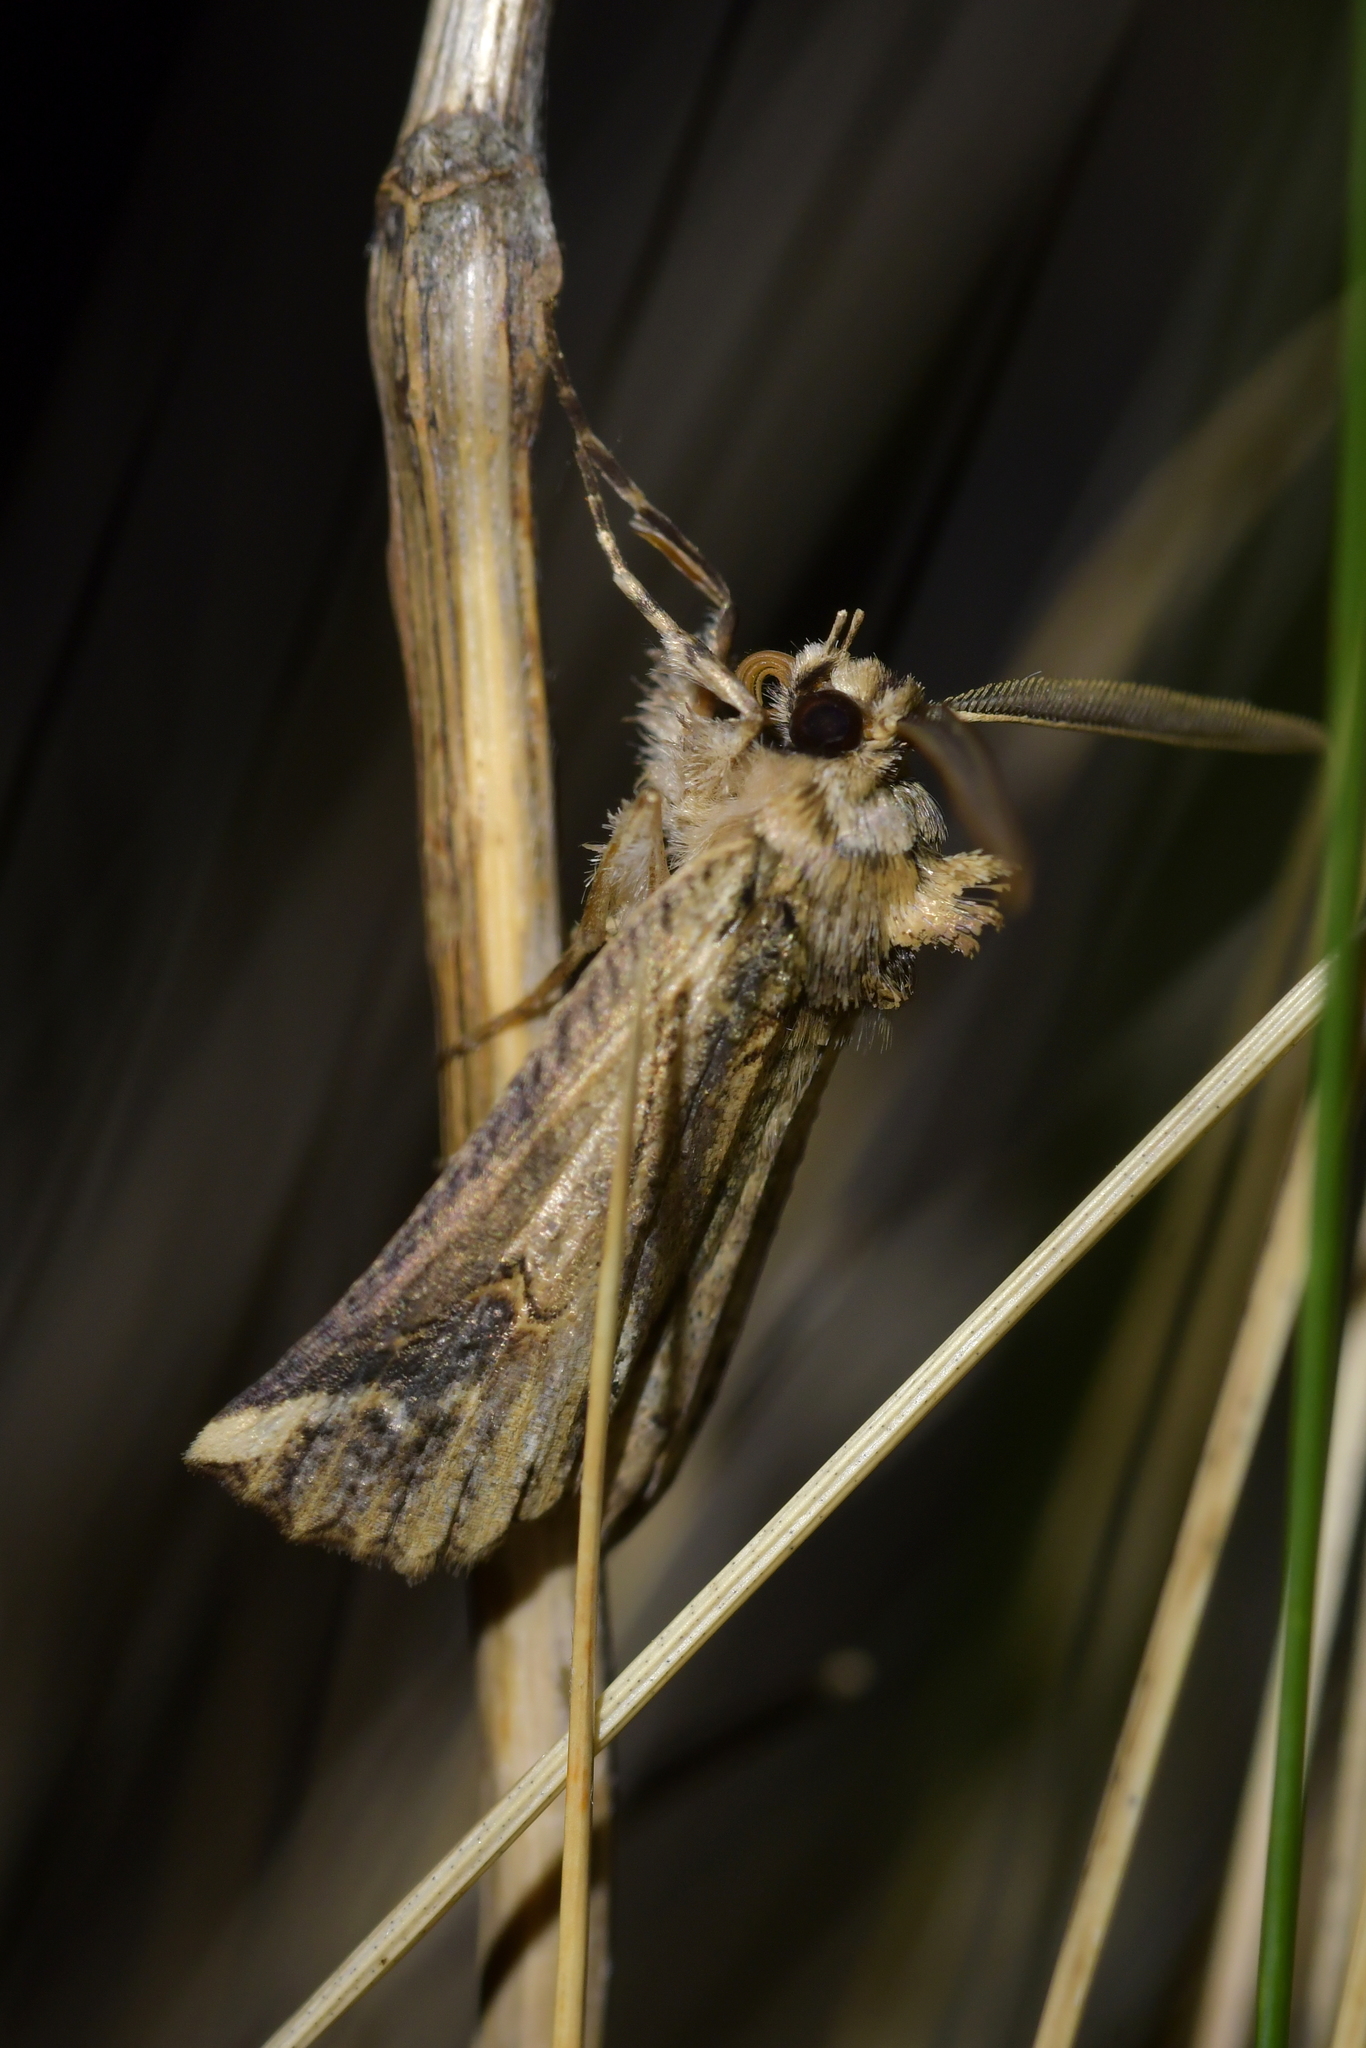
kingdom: Animalia
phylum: Arthropoda
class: Insecta
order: Lepidoptera
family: Geometridae
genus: Declana
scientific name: Declana
